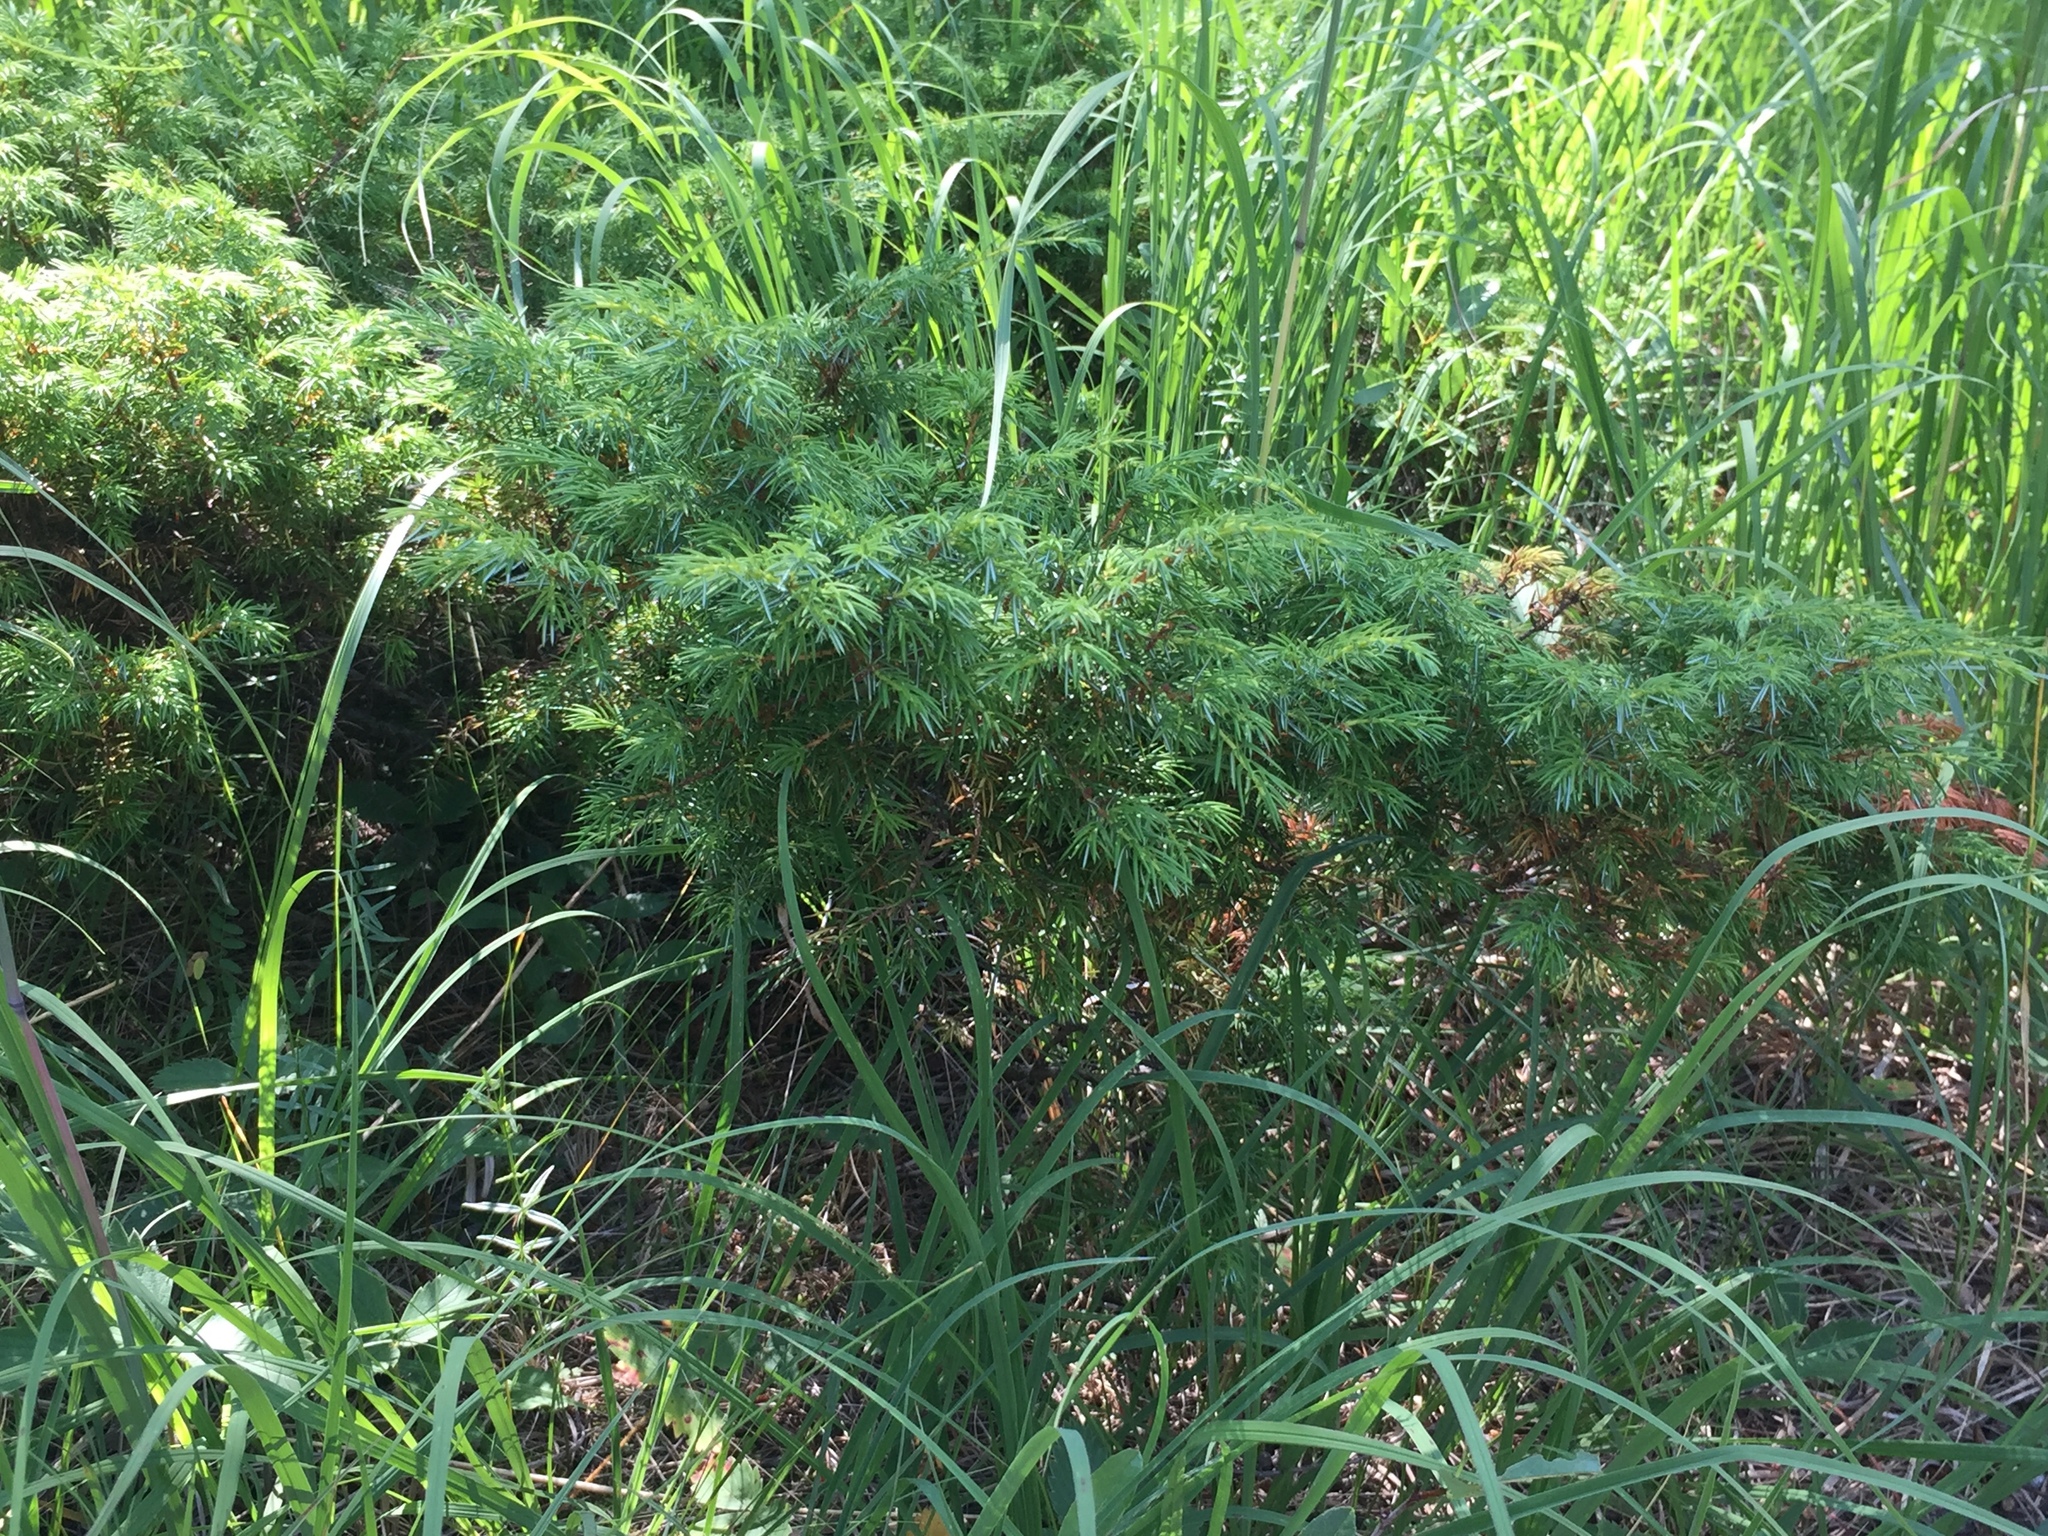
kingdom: Plantae
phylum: Tracheophyta
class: Pinopsida
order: Pinales
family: Cupressaceae
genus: Juniperus
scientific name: Juniperus communis
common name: Common juniper
